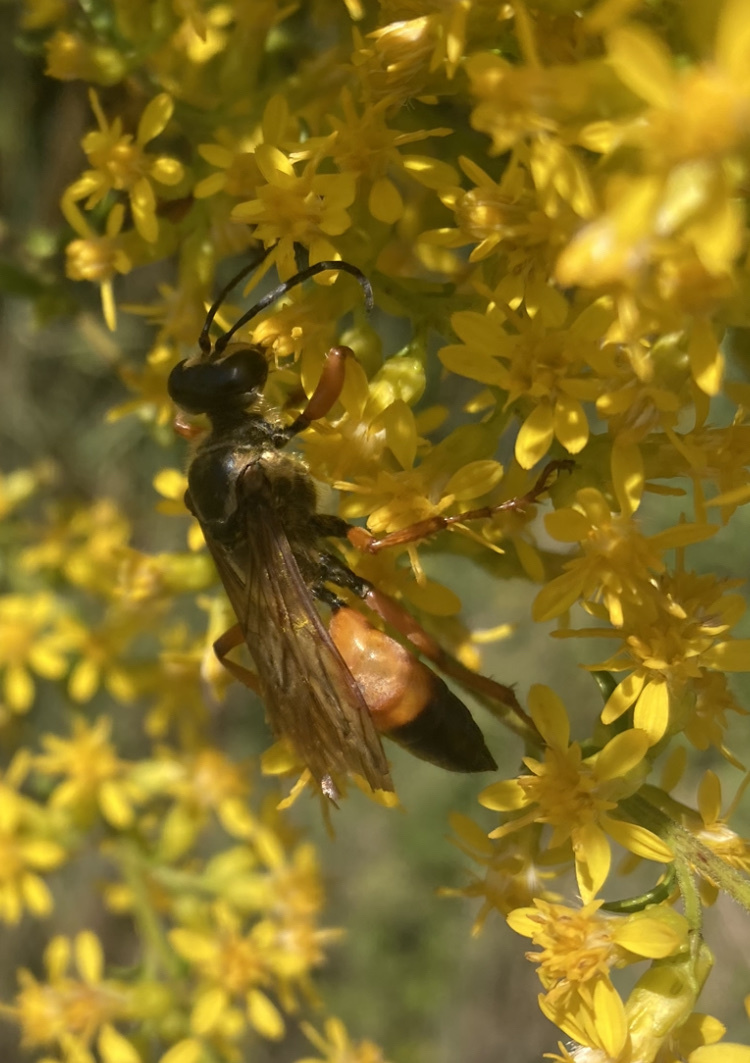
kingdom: Animalia
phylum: Arthropoda
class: Insecta
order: Hymenoptera
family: Sphecidae
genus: Sphex
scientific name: Sphex ichneumoneus
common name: Great golden digger wasp
